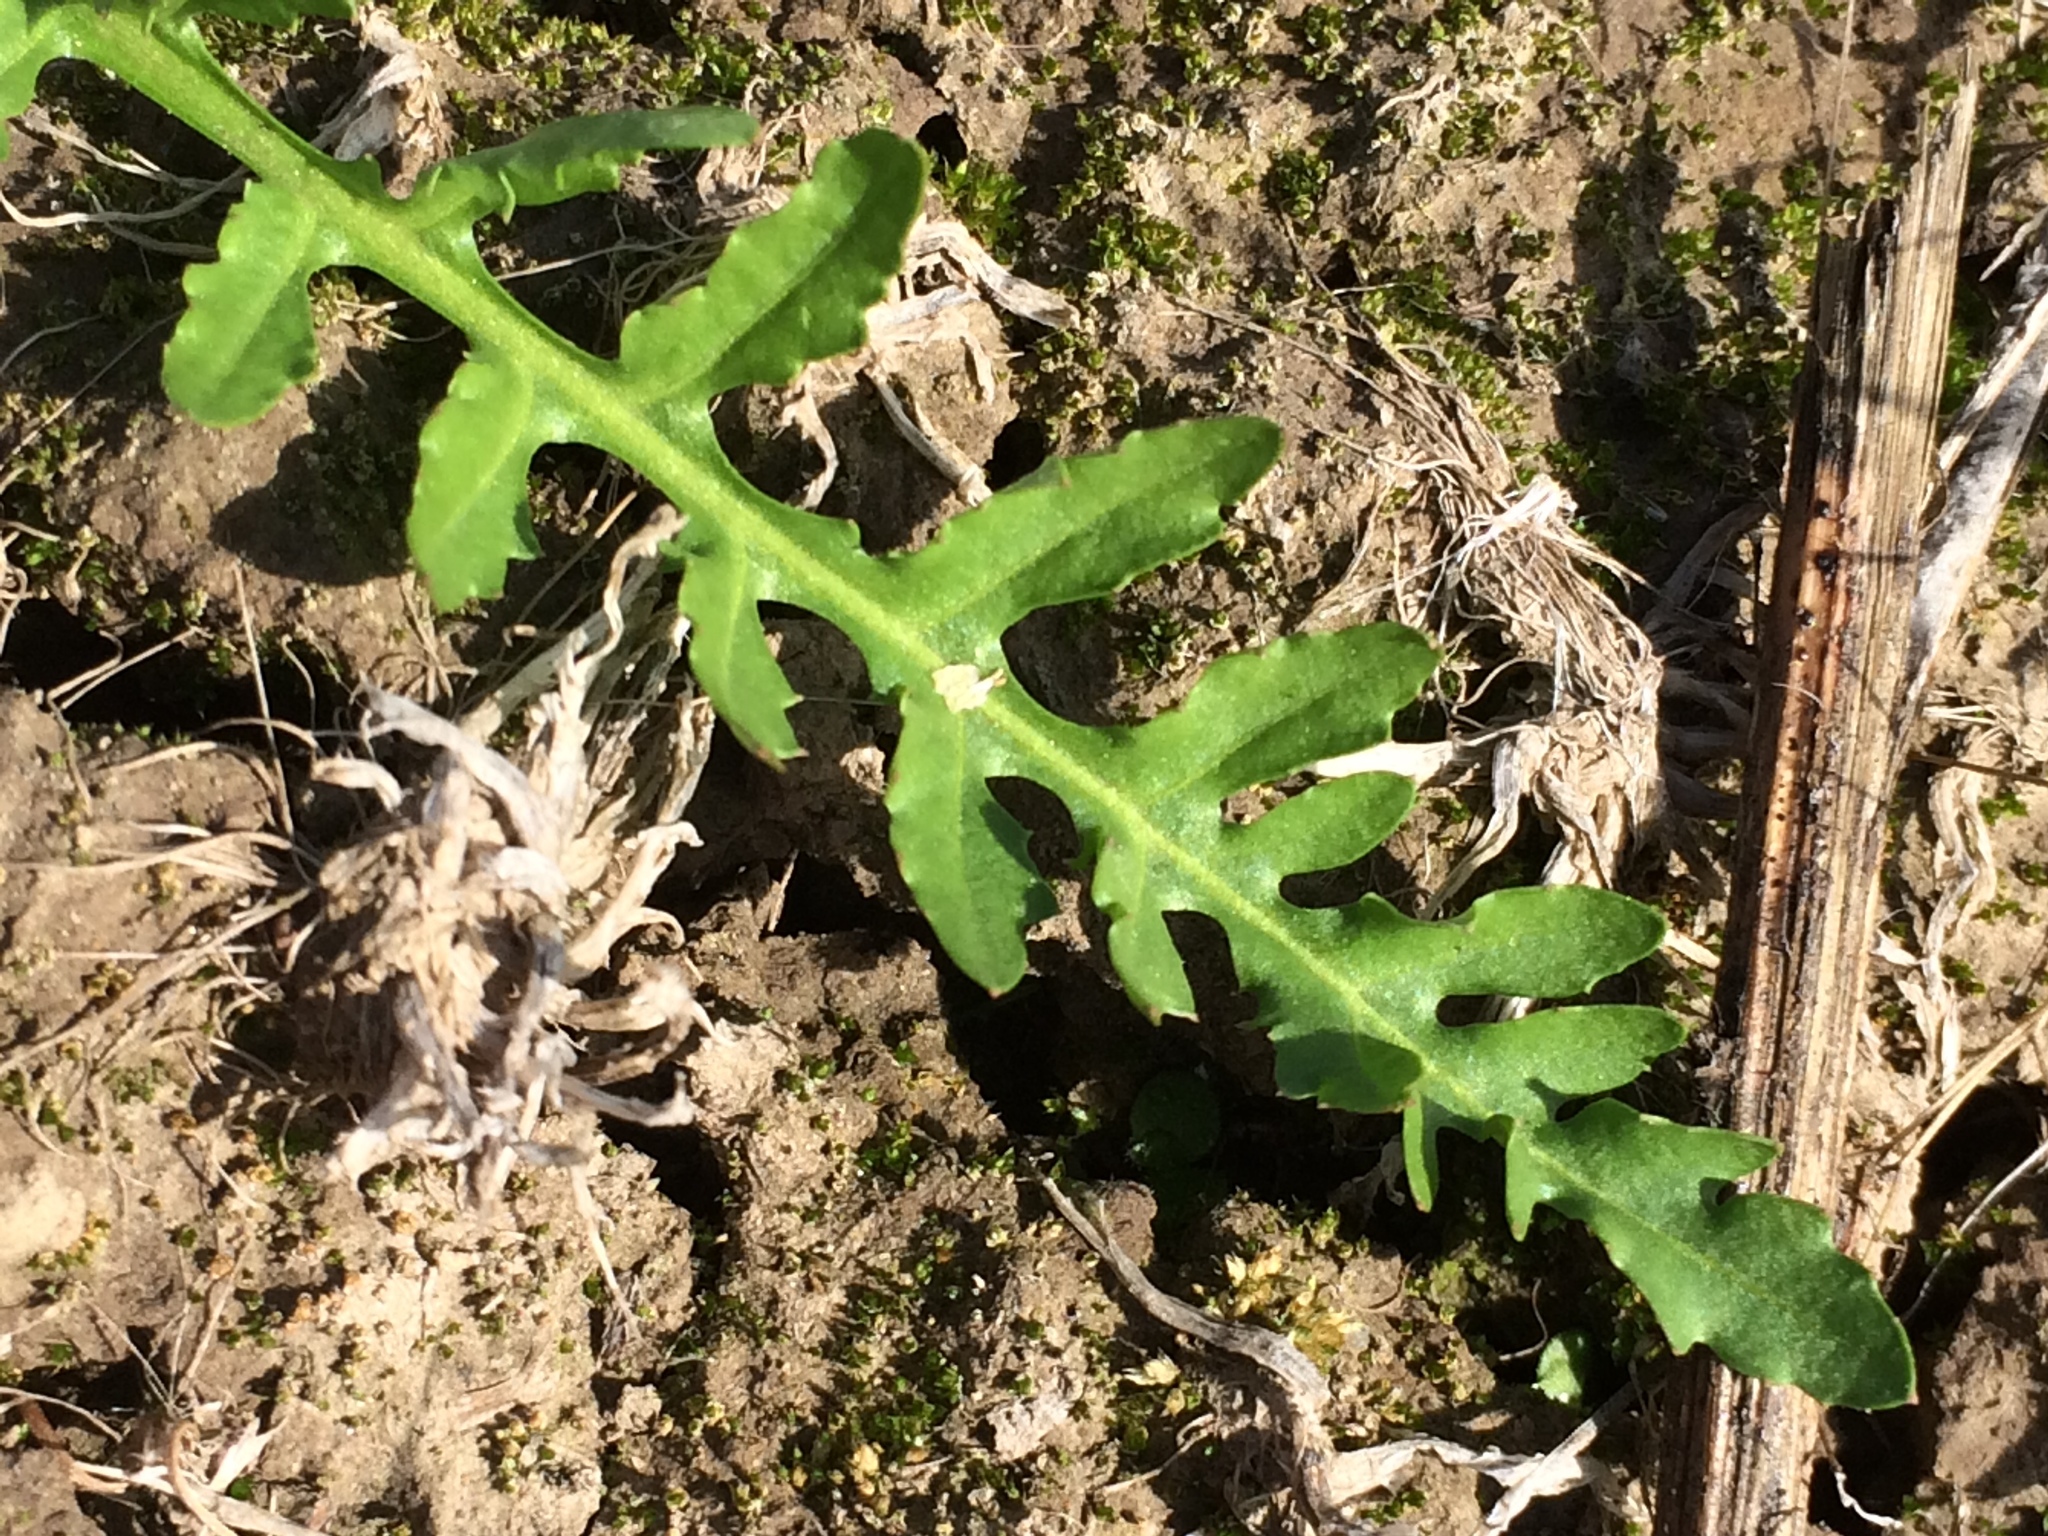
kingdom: Plantae
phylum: Tracheophyta
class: Magnoliopsida
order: Brassicales
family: Brassicaceae
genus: Rorippa
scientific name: Rorippa curvisiliqua
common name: Curve-pod yellow cress
